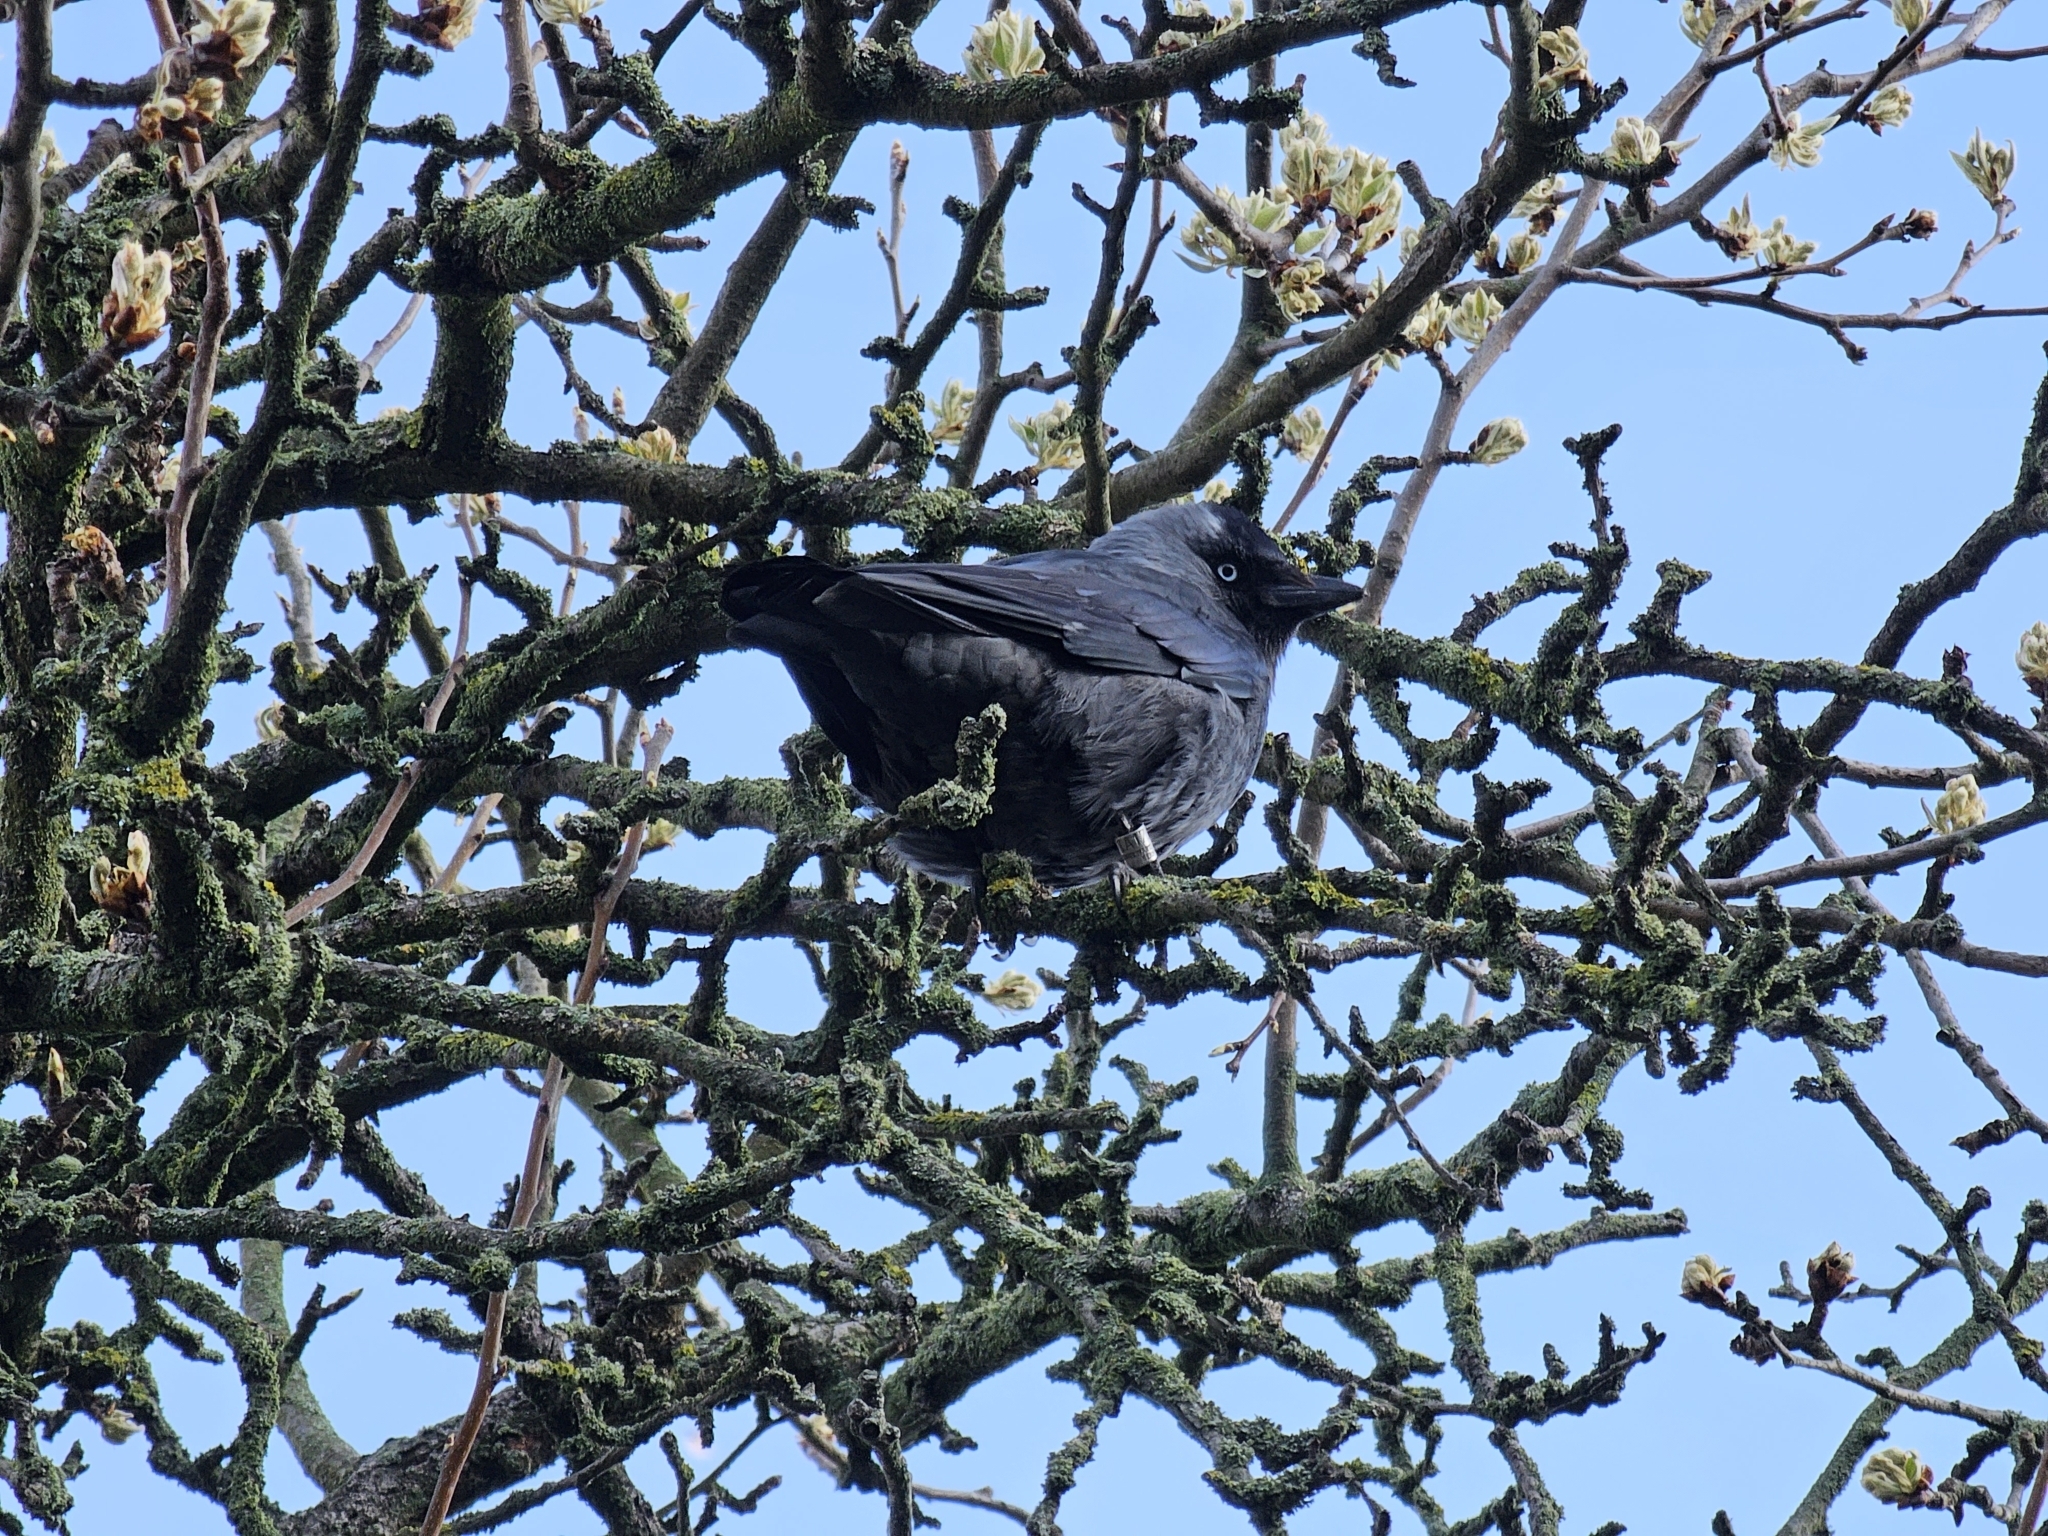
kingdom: Animalia
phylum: Chordata
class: Aves
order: Passeriformes
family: Corvidae
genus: Coloeus
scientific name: Coloeus monedula
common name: Western jackdaw
